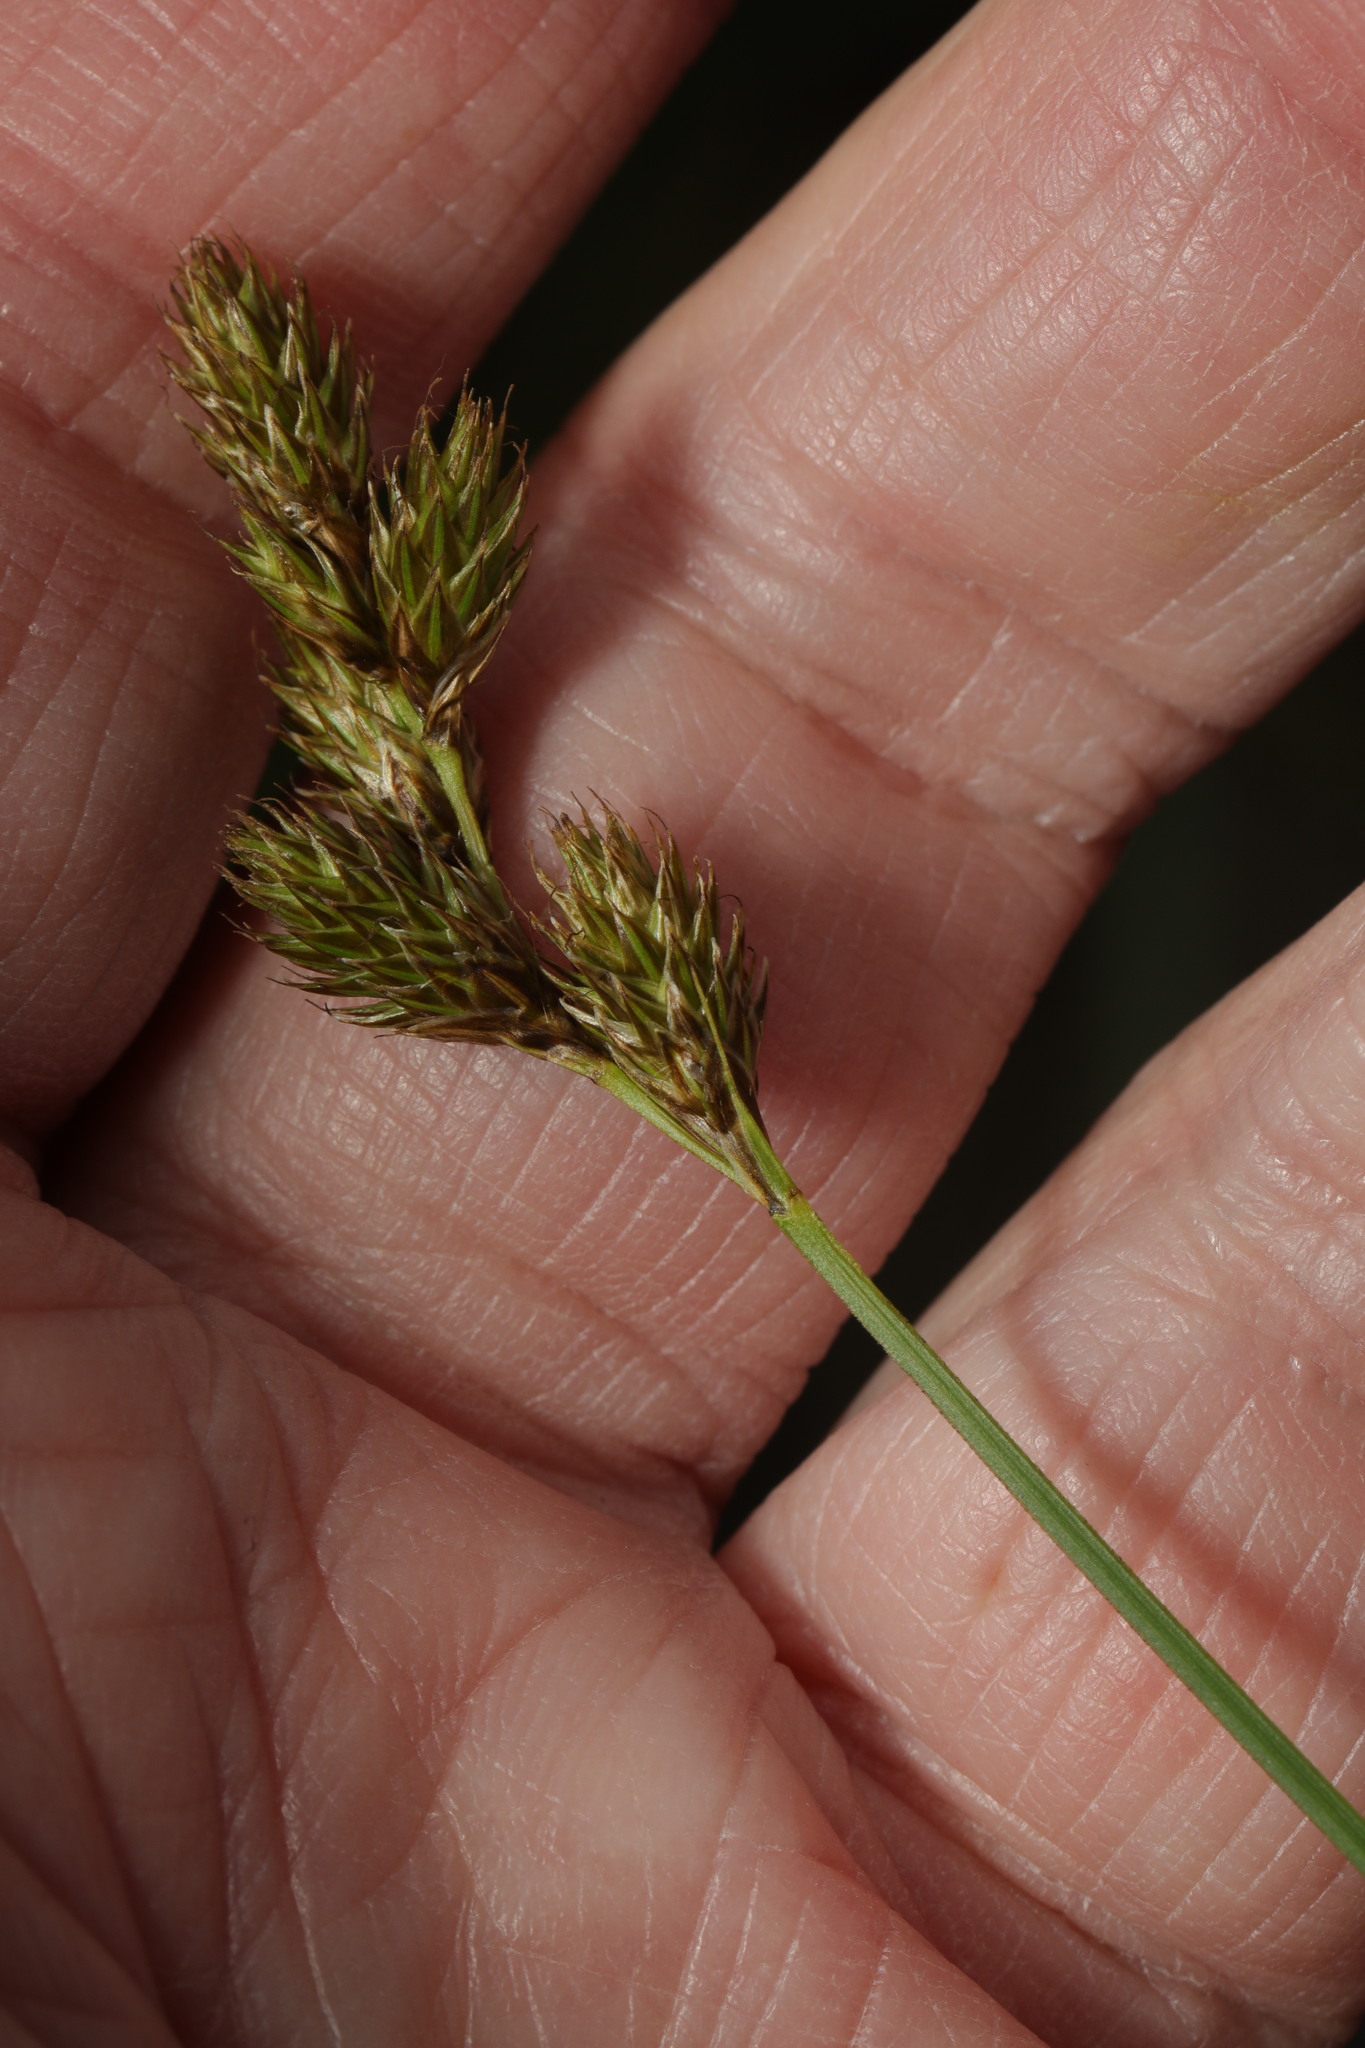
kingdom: Plantae
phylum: Tracheophyta
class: Liliopsida
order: Poales
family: Cyperaceae
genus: Carex
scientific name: Carex leporina
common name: Oval sedge
